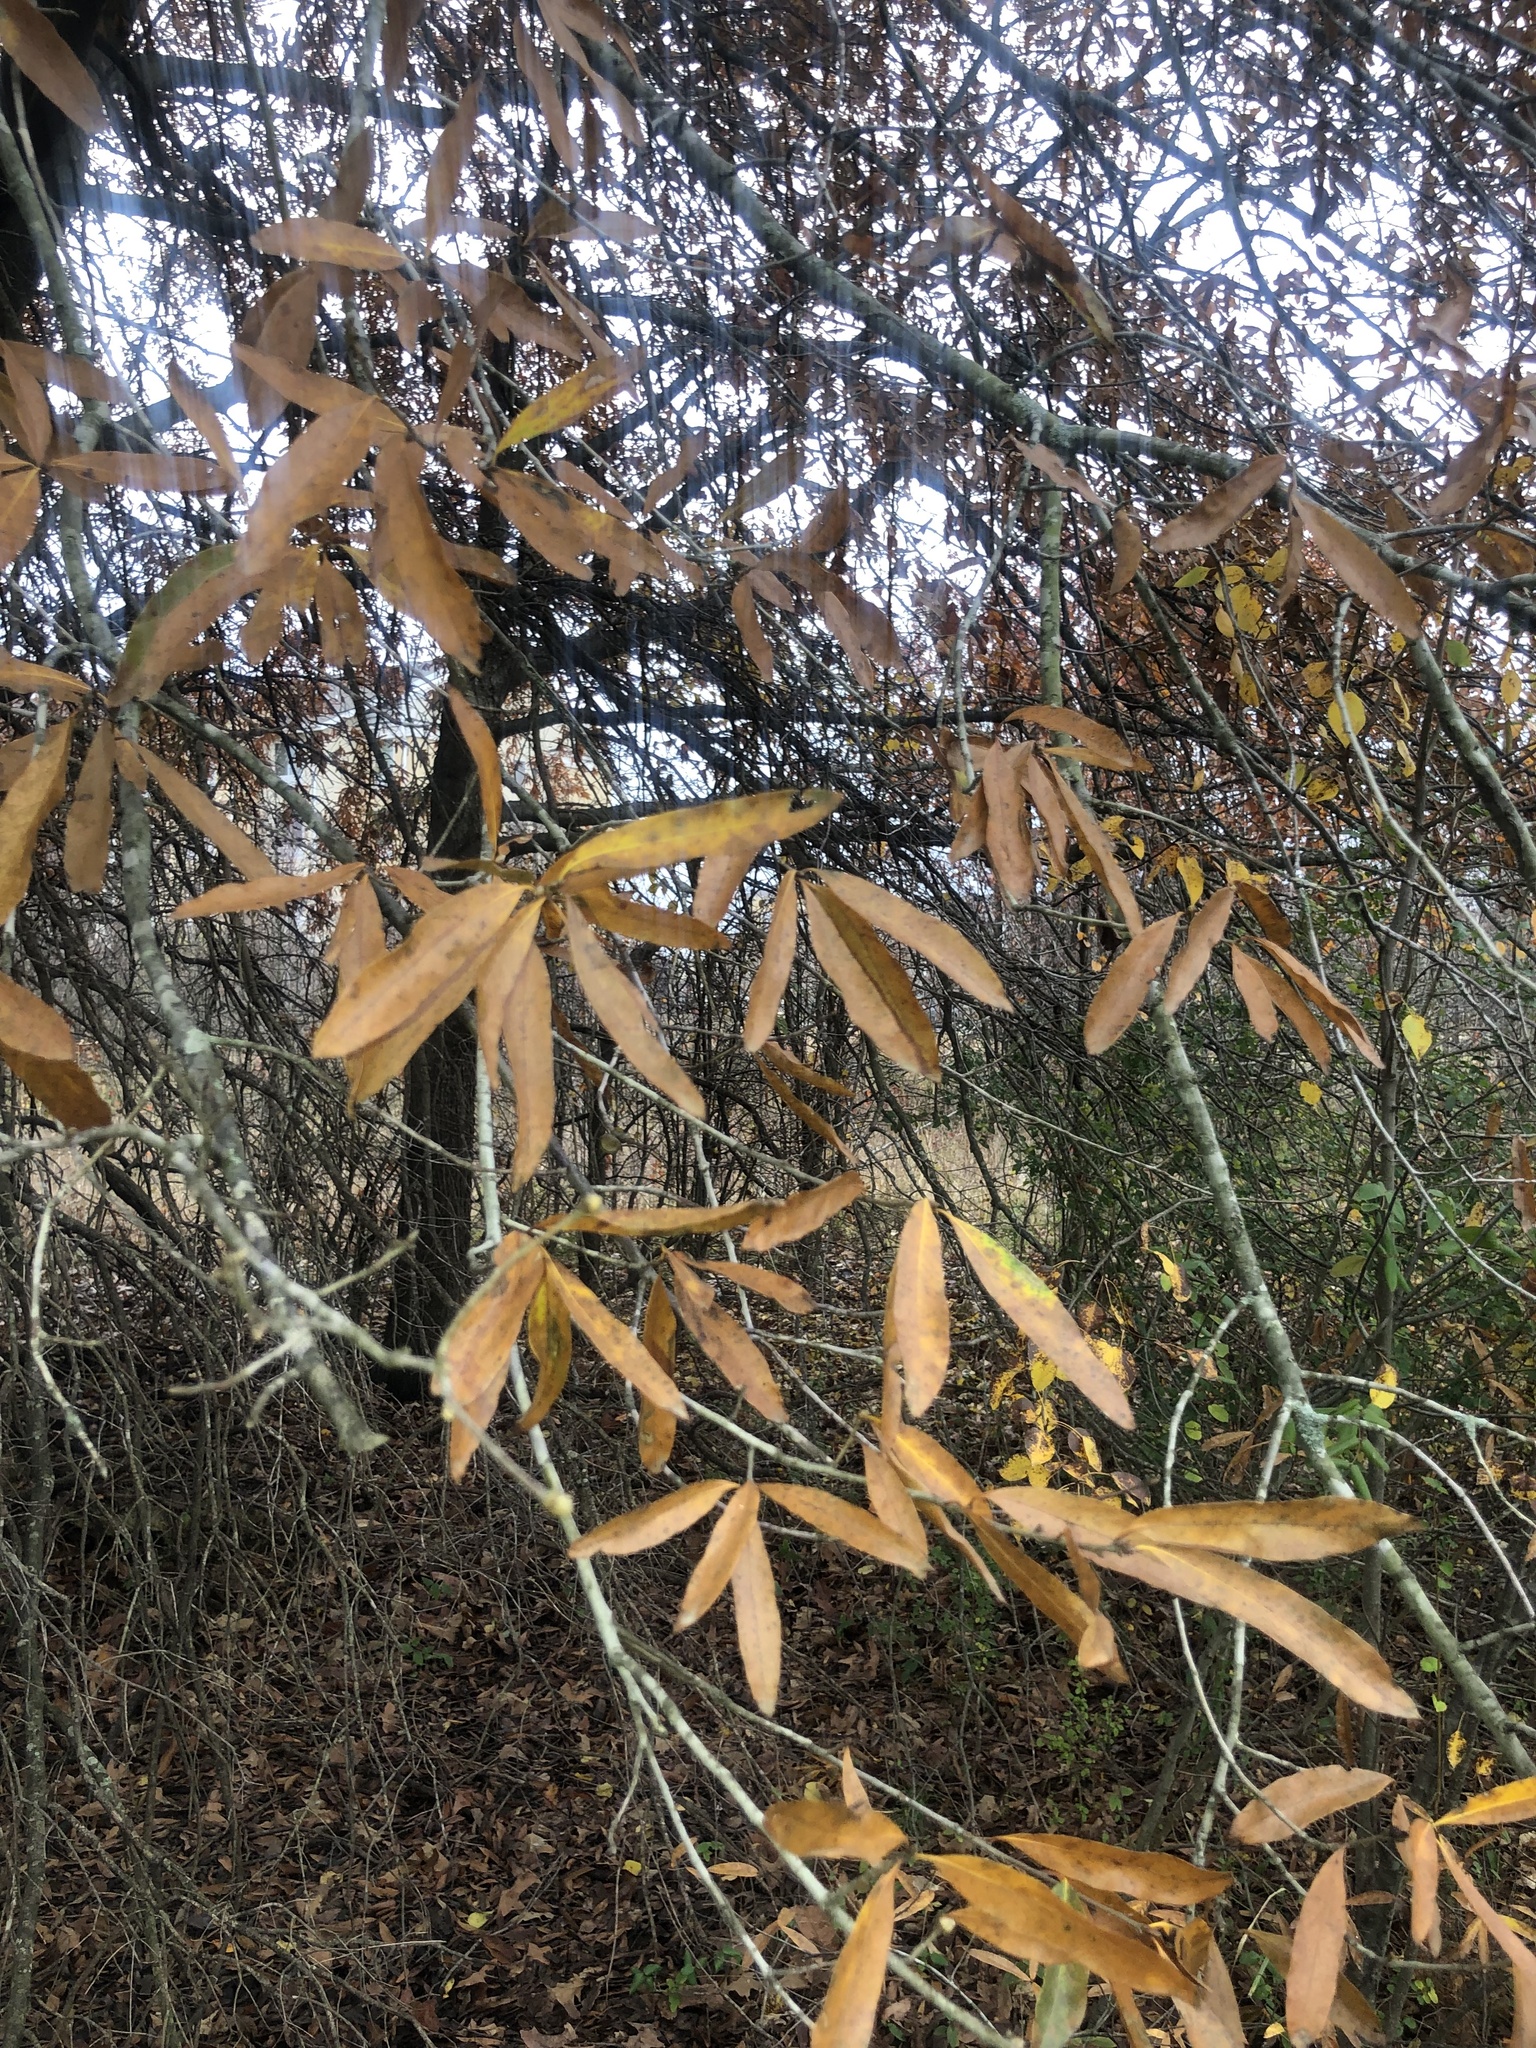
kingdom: Plantae
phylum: Tracheophyta
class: Magnoliopsida
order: Fagales
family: Fagaceae
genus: Quercus
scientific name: Quercus phellos
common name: Willow oak
